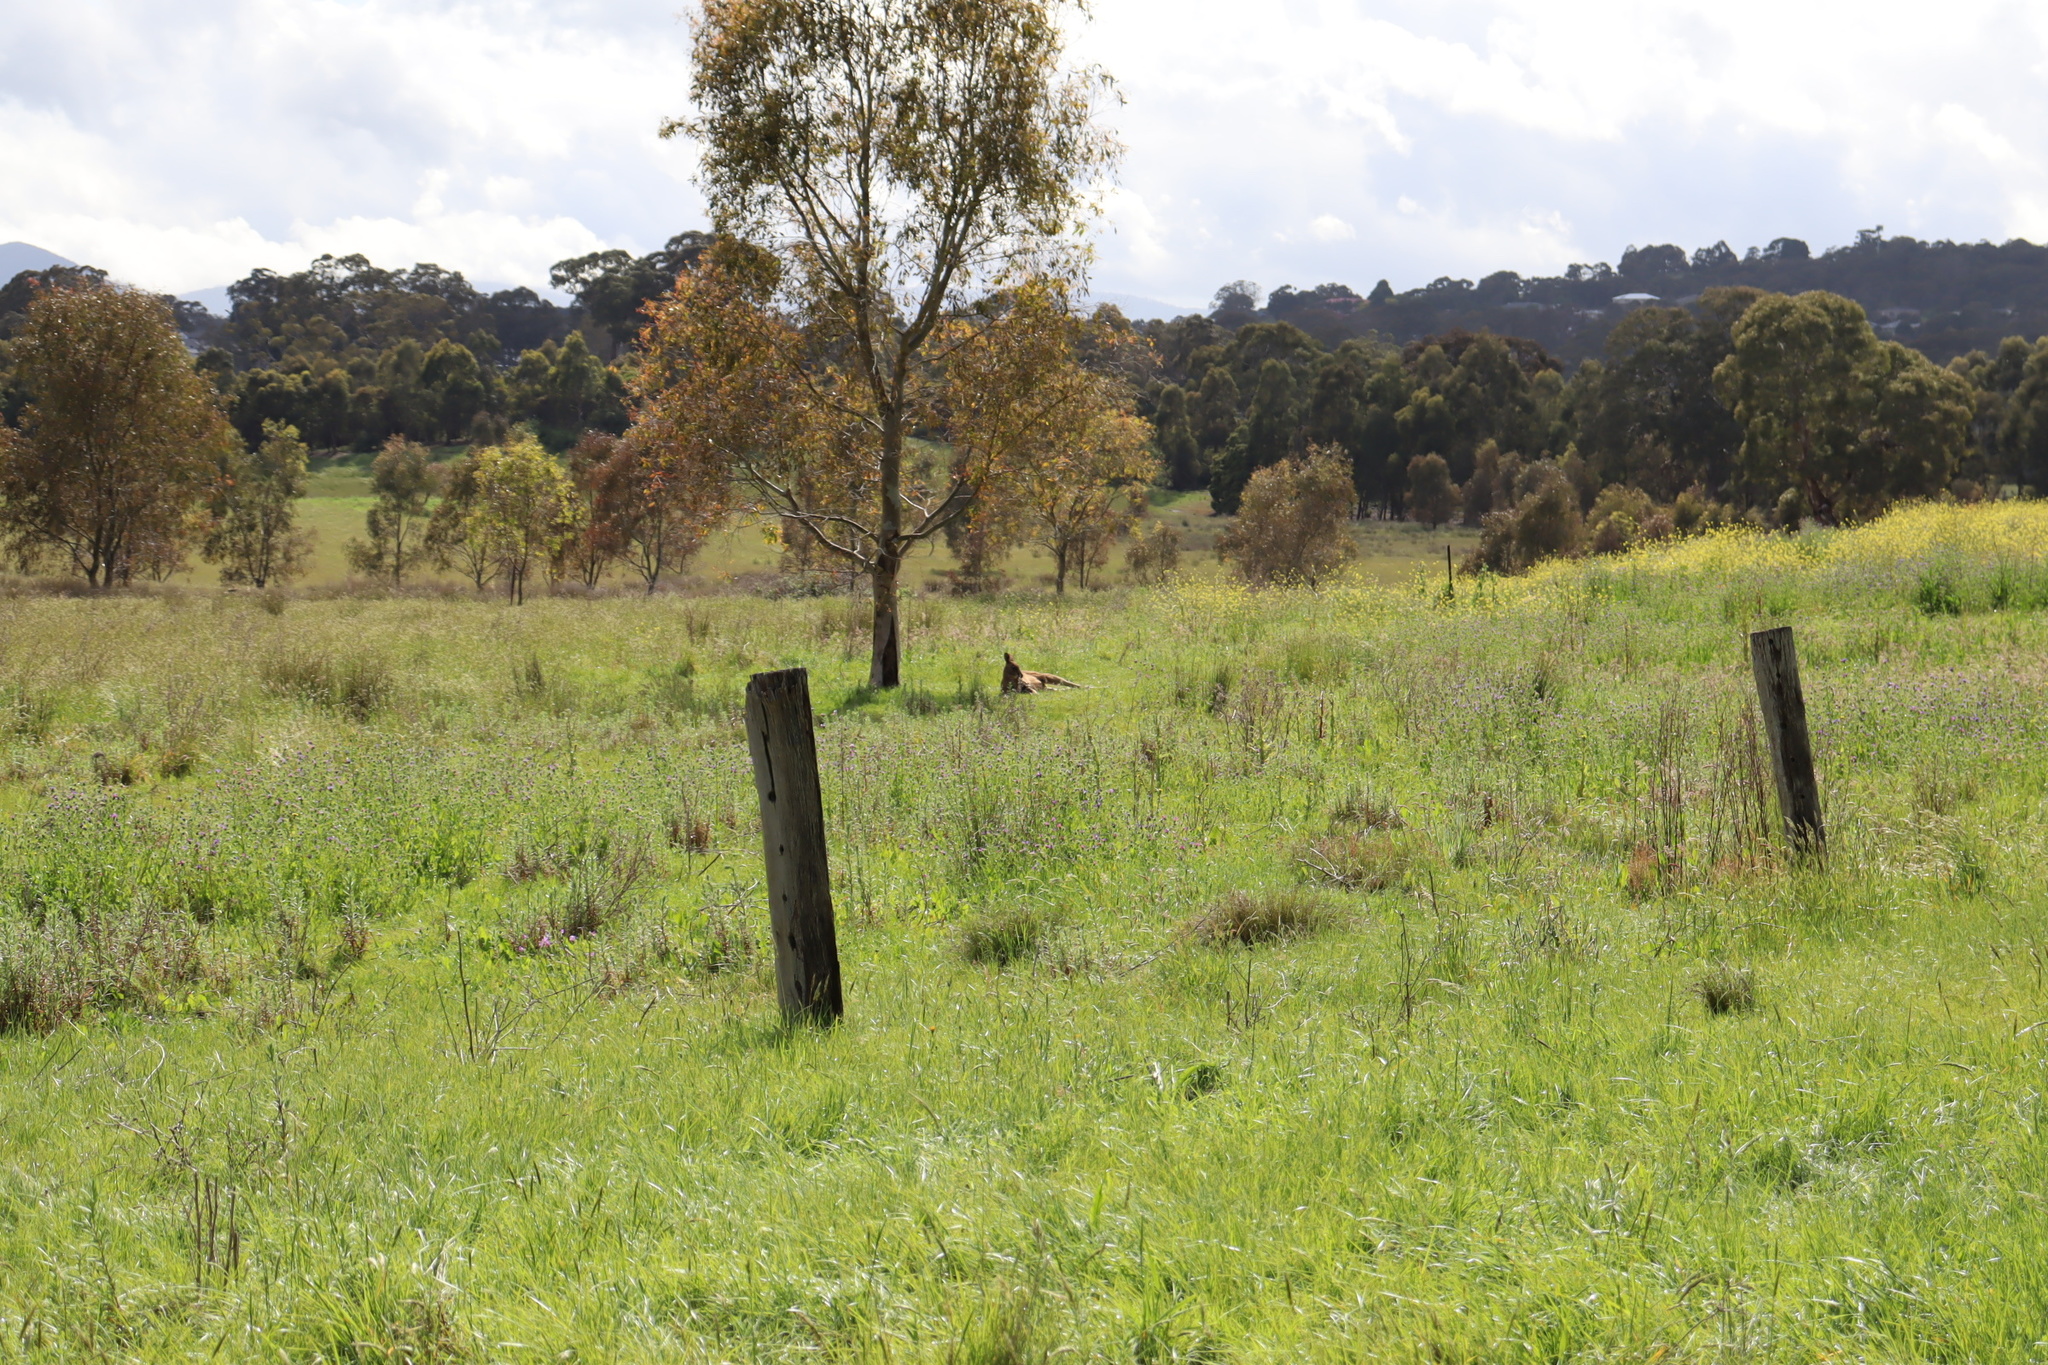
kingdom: Animalia
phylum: Chordata
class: Mammalia
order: Diprotodontia
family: Macropodidae
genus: Macropus
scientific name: Macropus giganteus
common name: Eastern grey kangaroo
